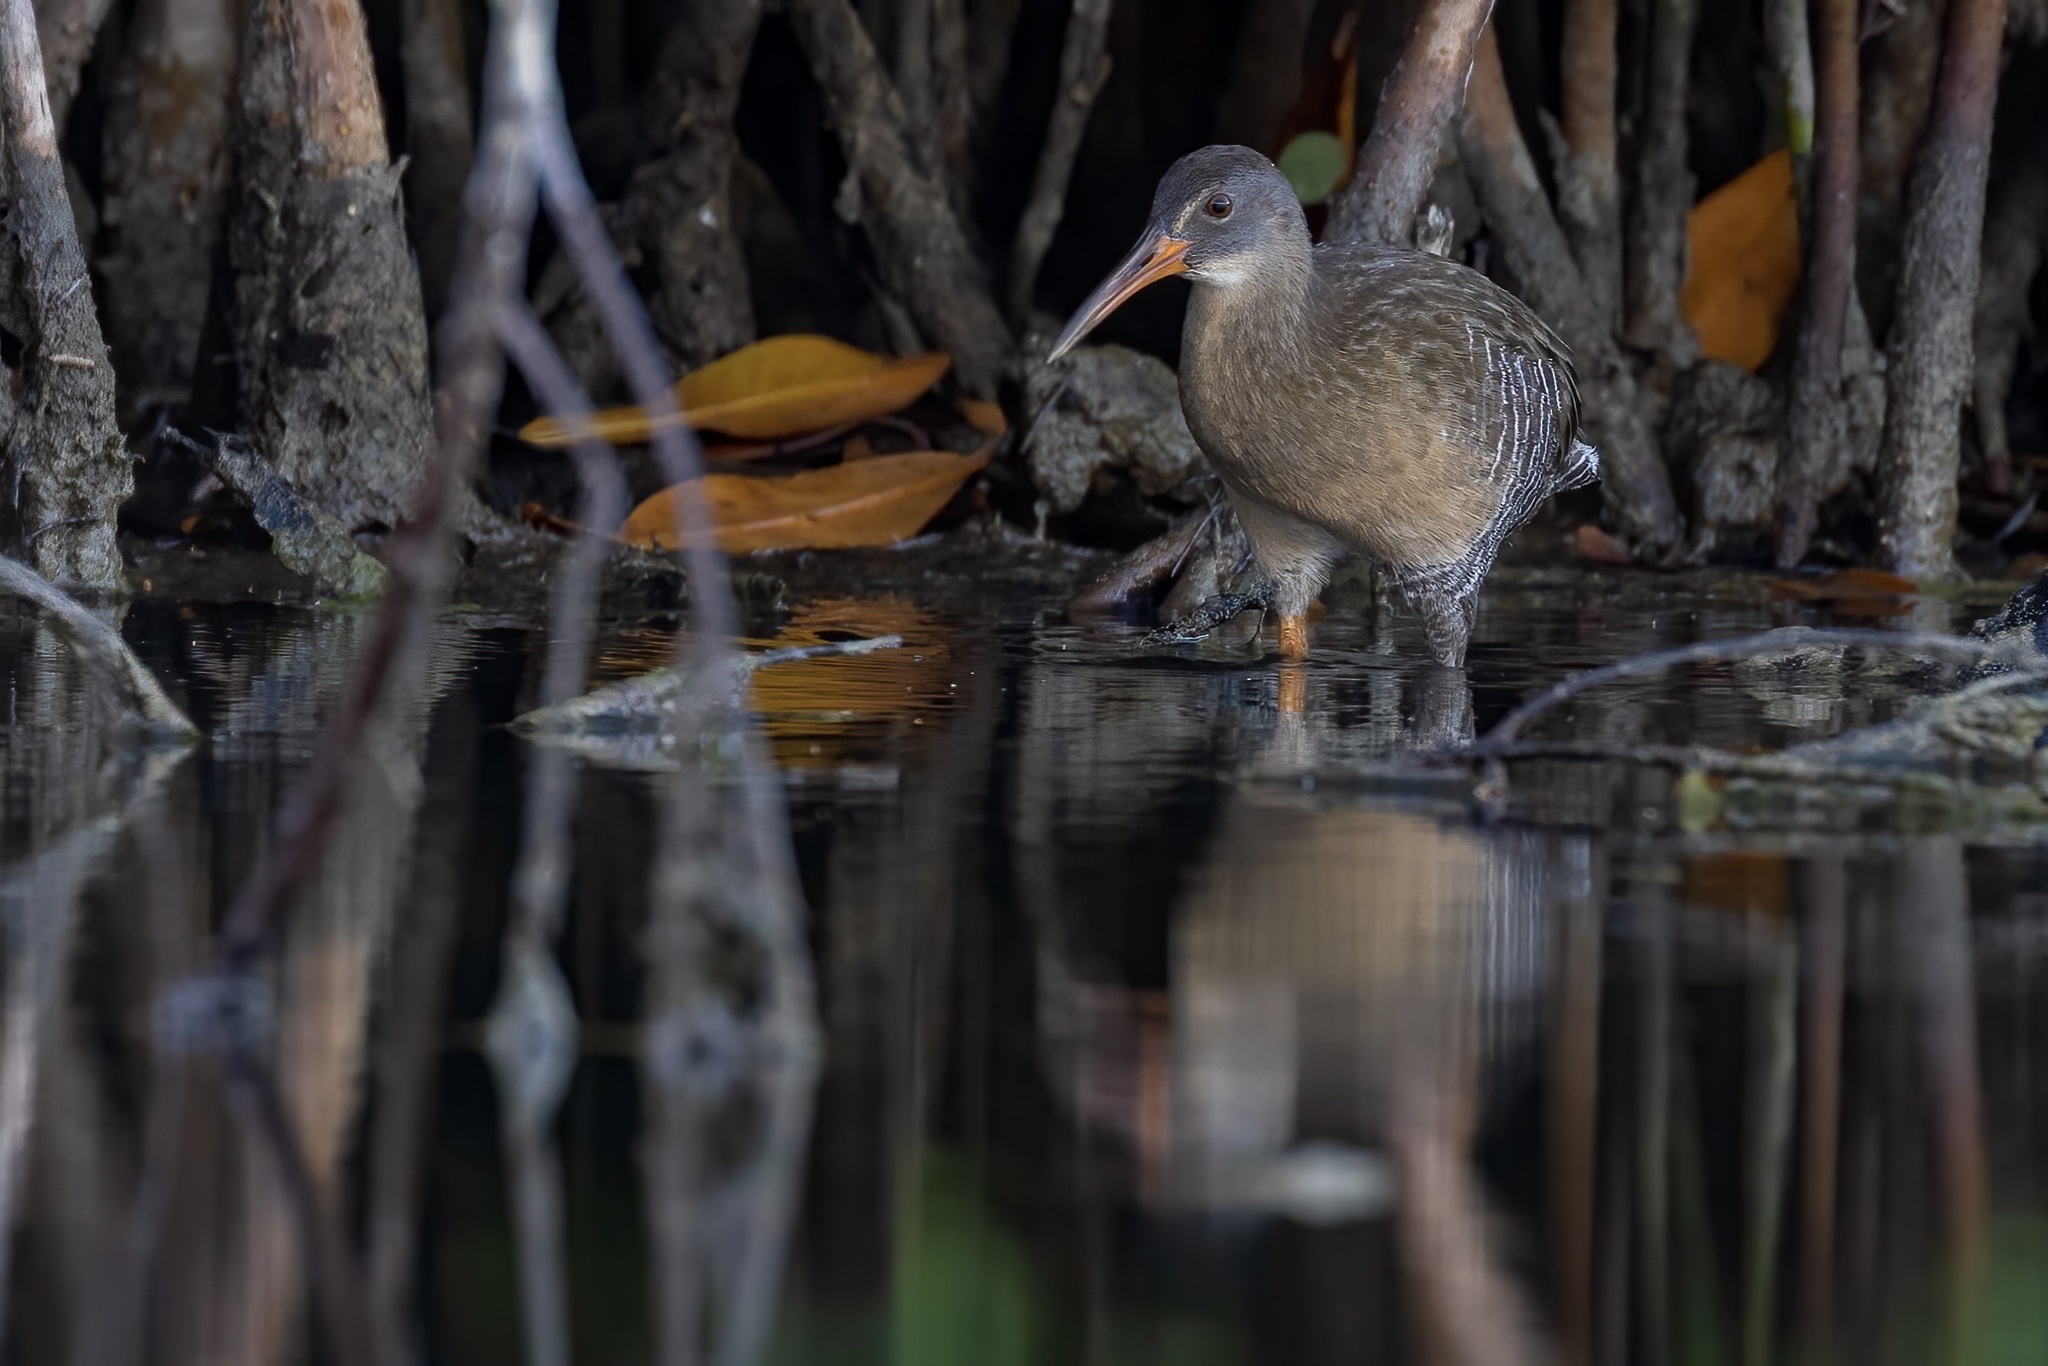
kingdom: Animalia
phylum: Chordata
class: Aves
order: Gruiformes
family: Rallidae
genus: Rallus
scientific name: Rallus crepitans
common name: Clapper rail
